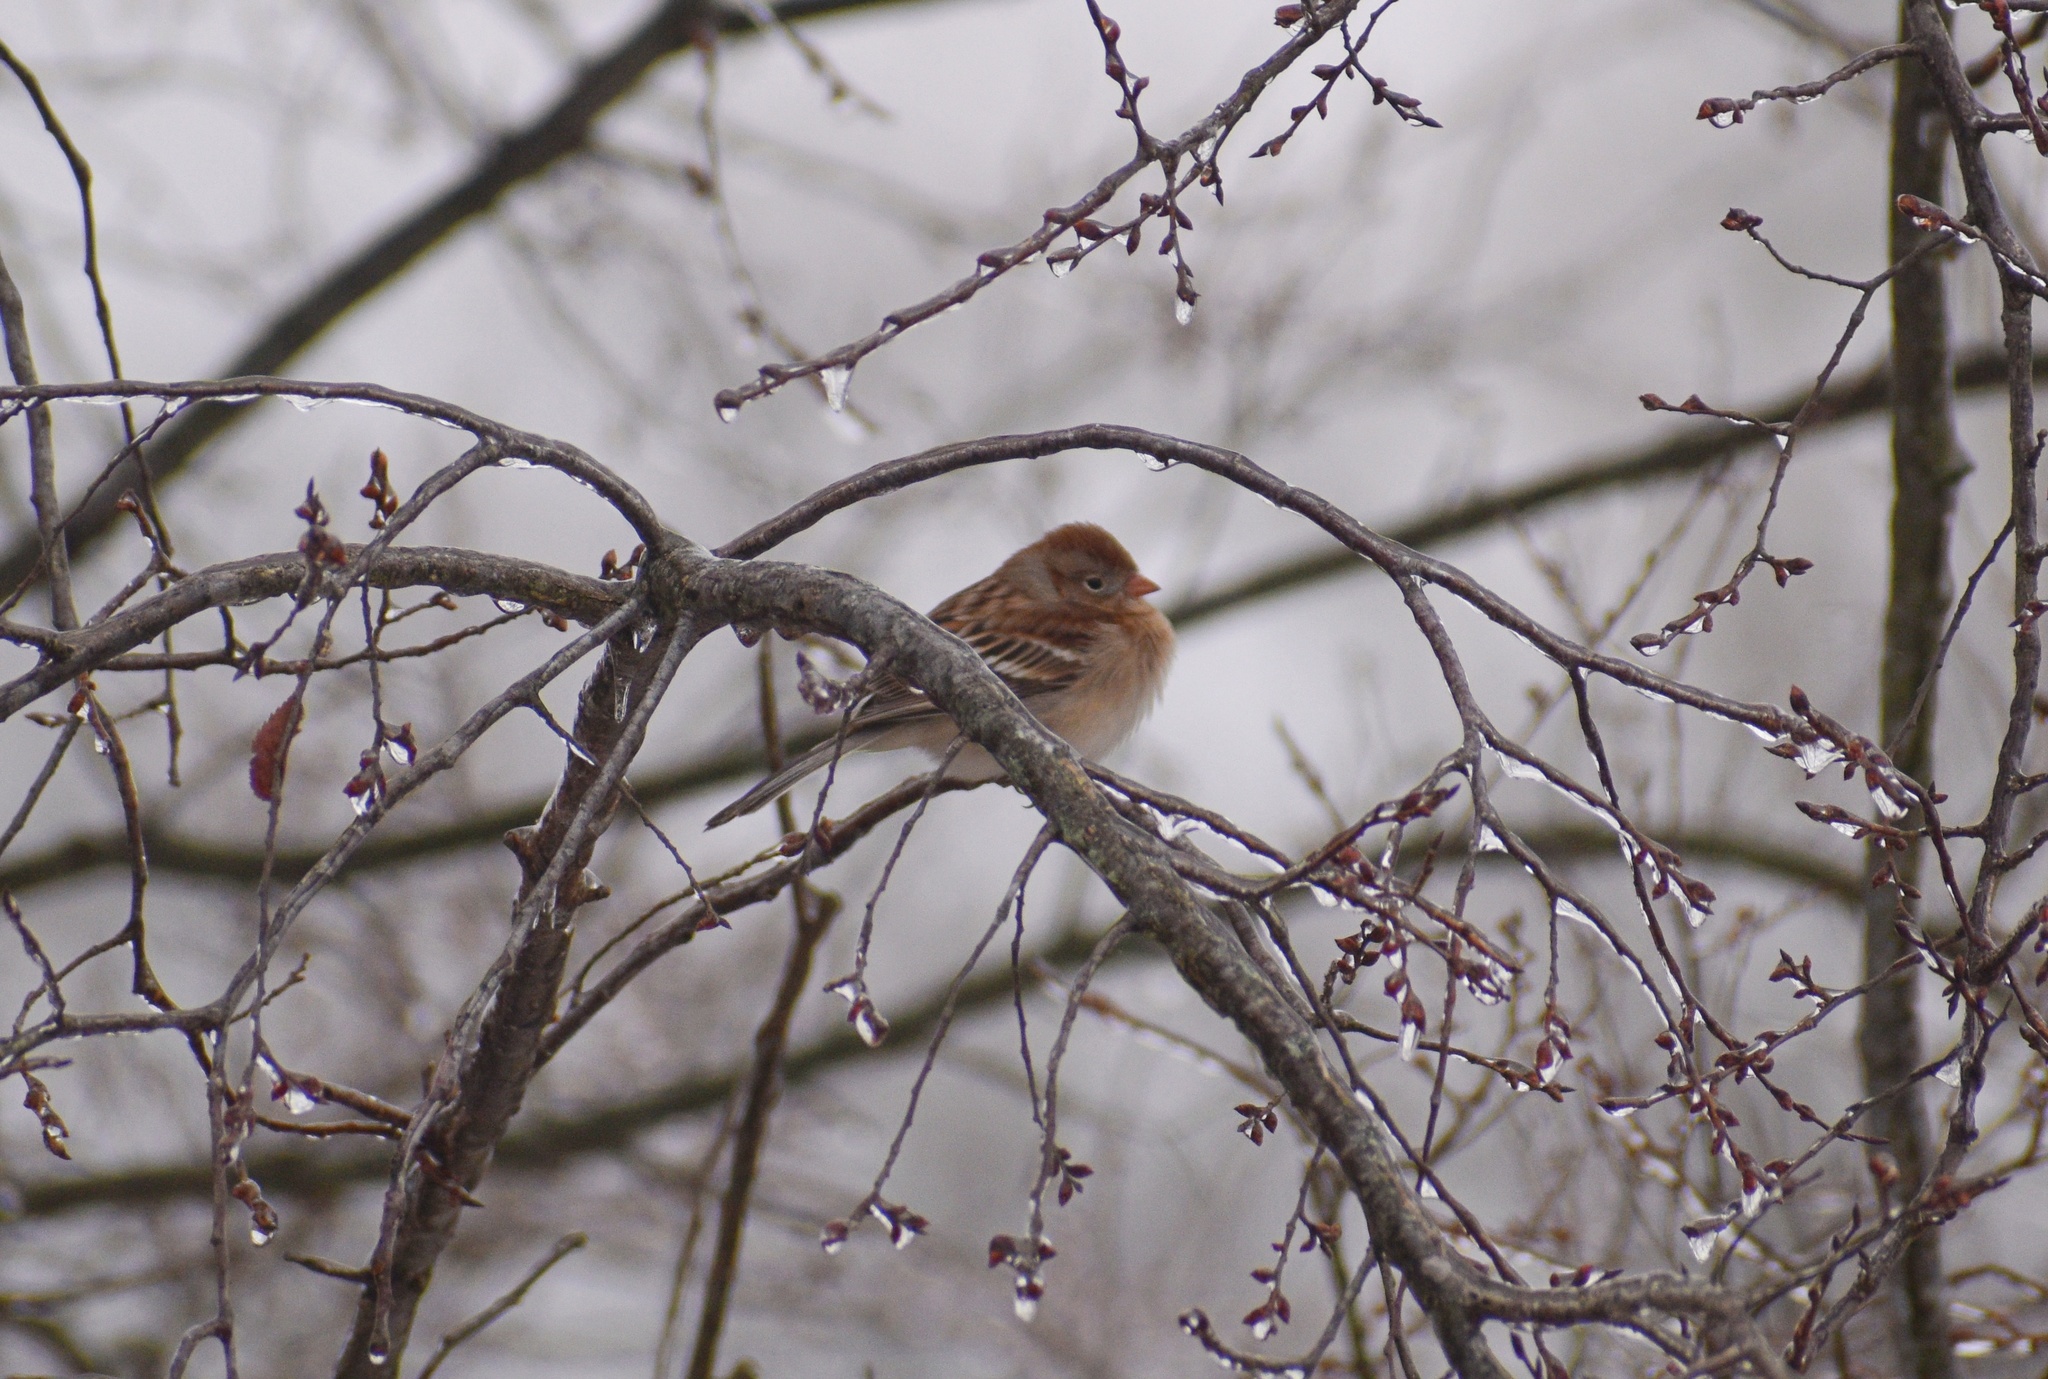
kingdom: Animalia
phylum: Chordata
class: Aves
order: Passeriformes
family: Passerellidae
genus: Spizella
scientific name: Spizella pusilla
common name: Field sparrow
